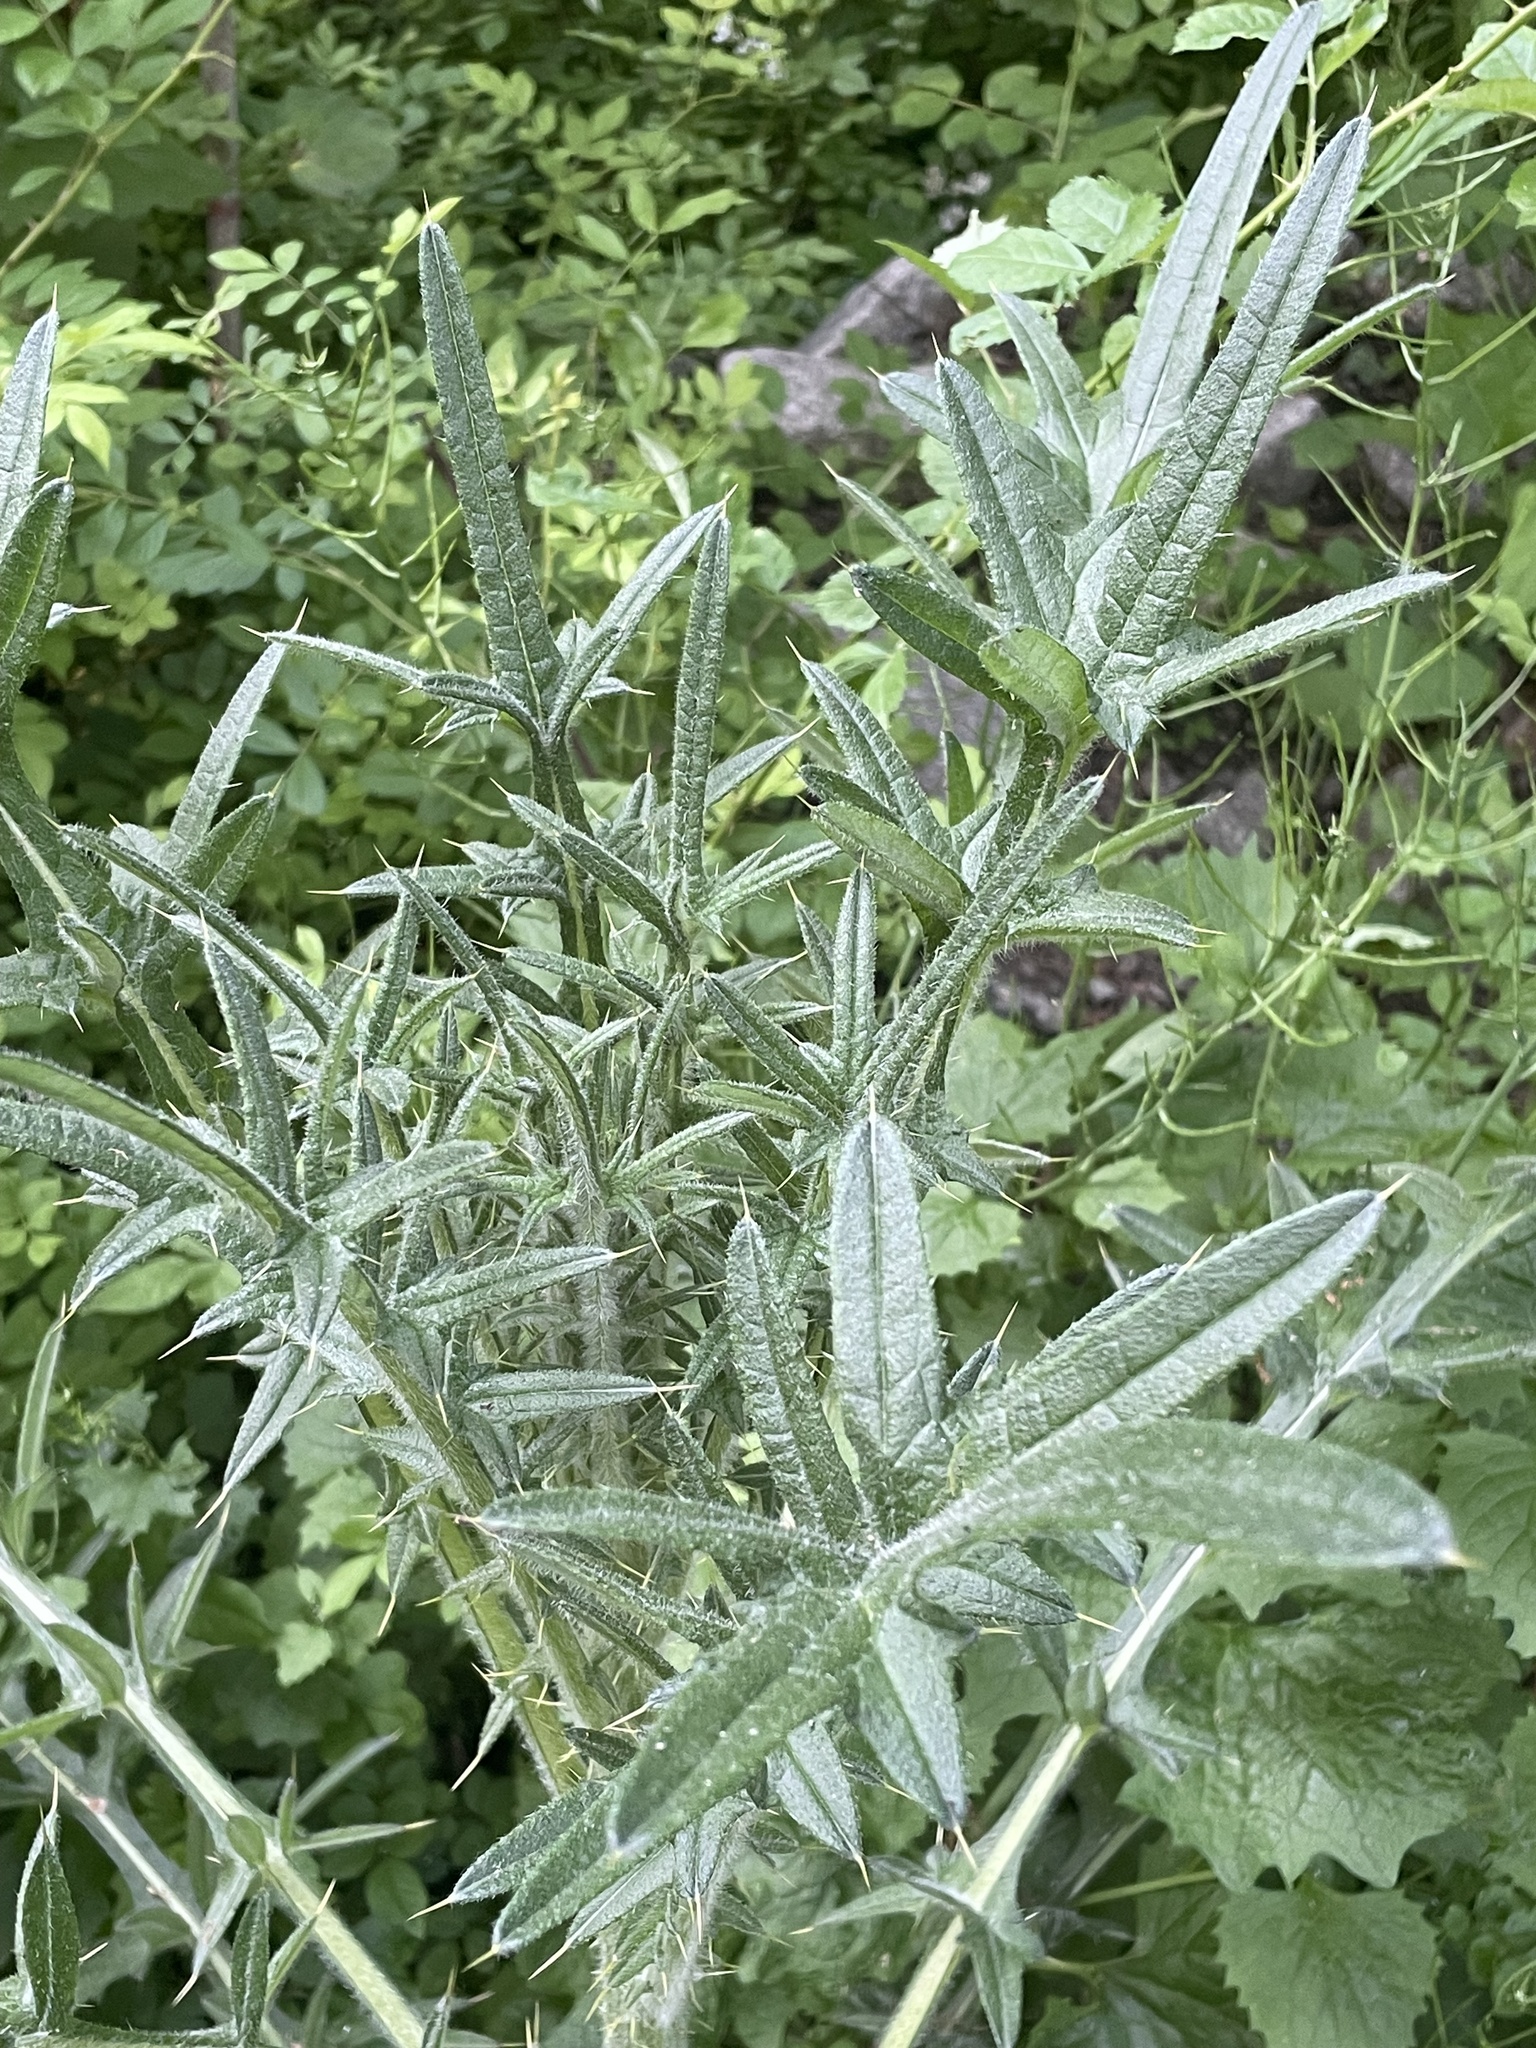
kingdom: Plantae
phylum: Tracheophyta
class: Magnoliopsida
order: Asterales
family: Asteraceae
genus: Cirsium
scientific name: Cirsium vulgare
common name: Bull thistle
